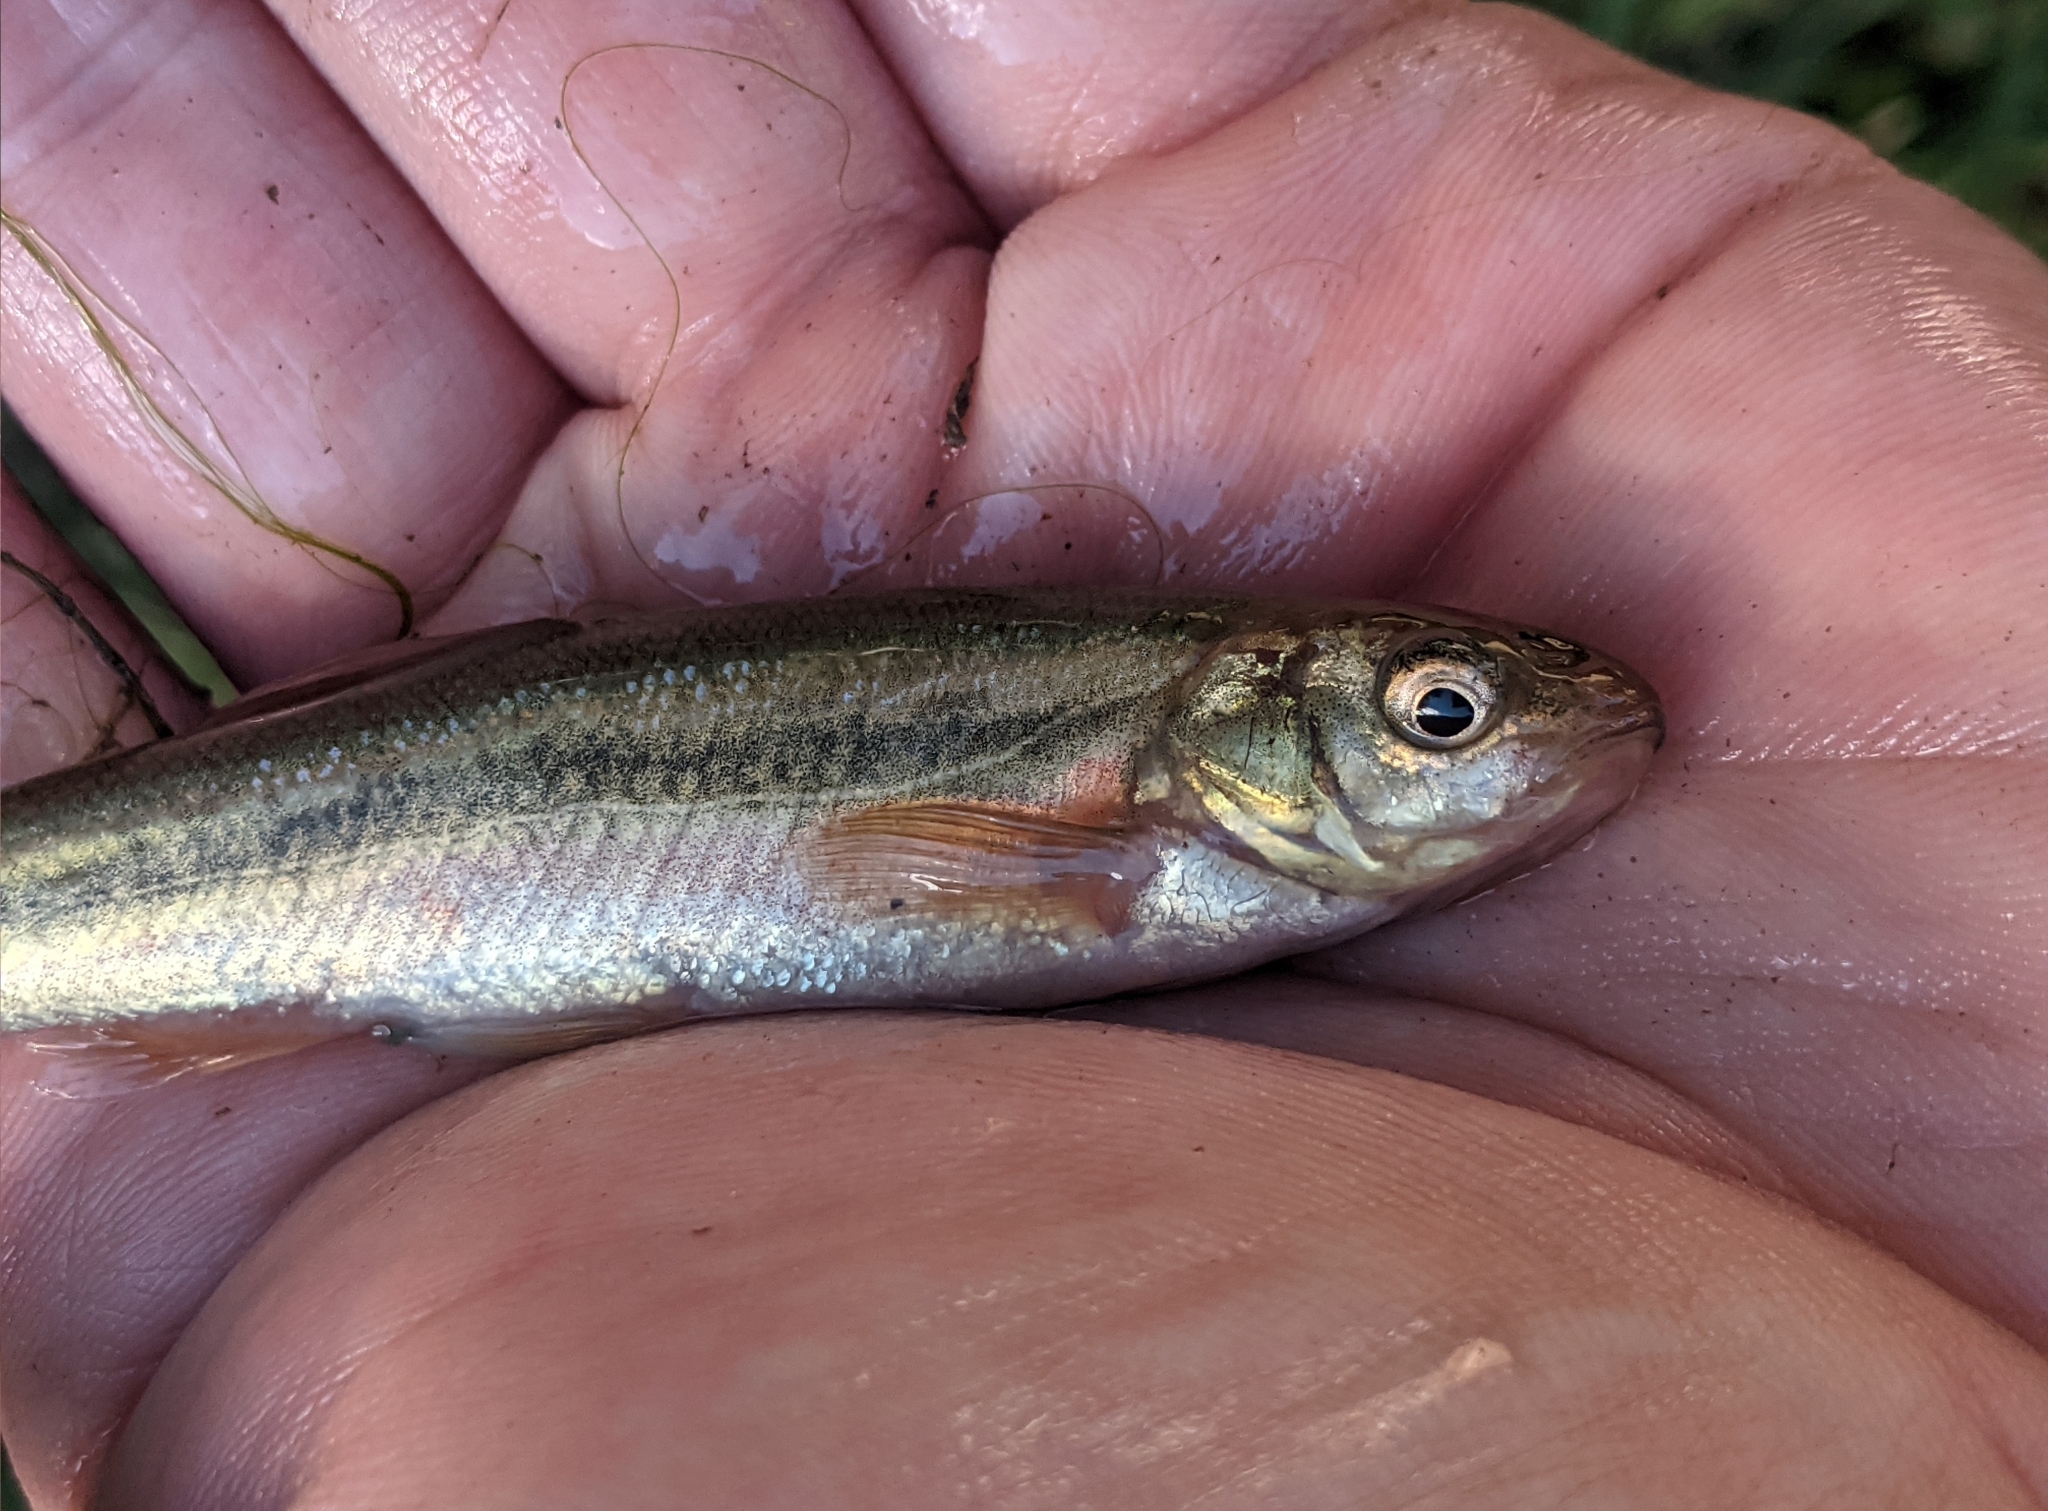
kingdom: Animalia
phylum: Chordata
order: Cypriniformes
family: Cyprinidae
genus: Margariscus
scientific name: Margariscus nachtriebi
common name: Northern pearl dace
